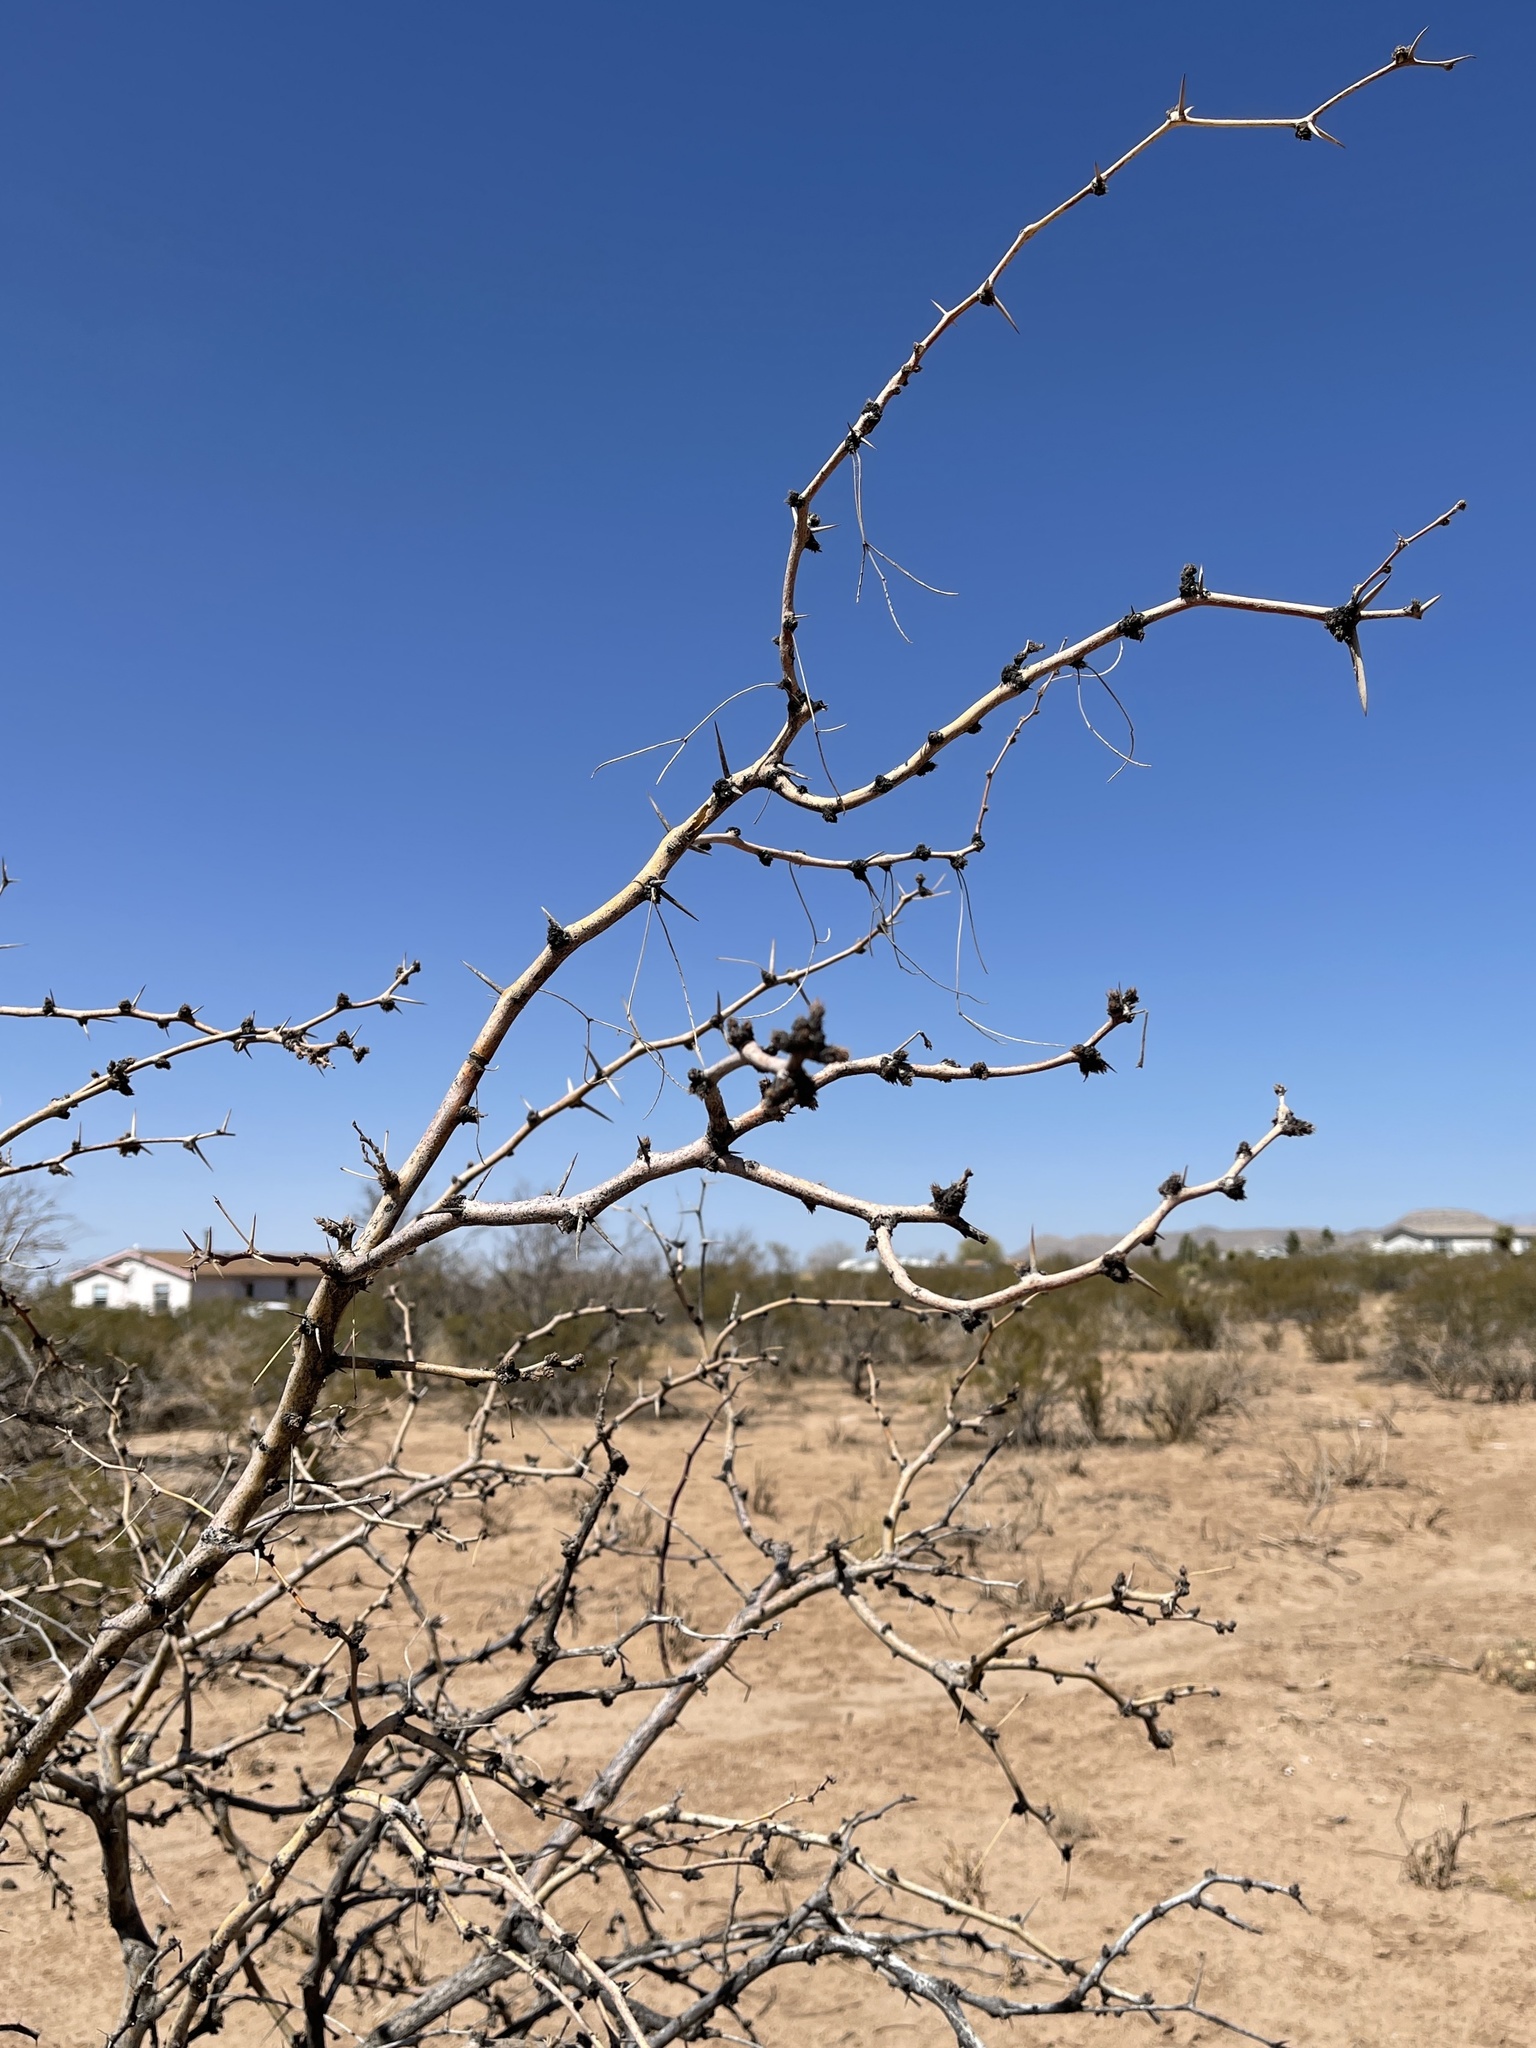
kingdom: Plantae
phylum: Tracheophyta
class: Magnoliopsida
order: Fabales
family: Fabaceae
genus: Prosopis
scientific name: Prosopis glandulosa
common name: Honey mesquite
